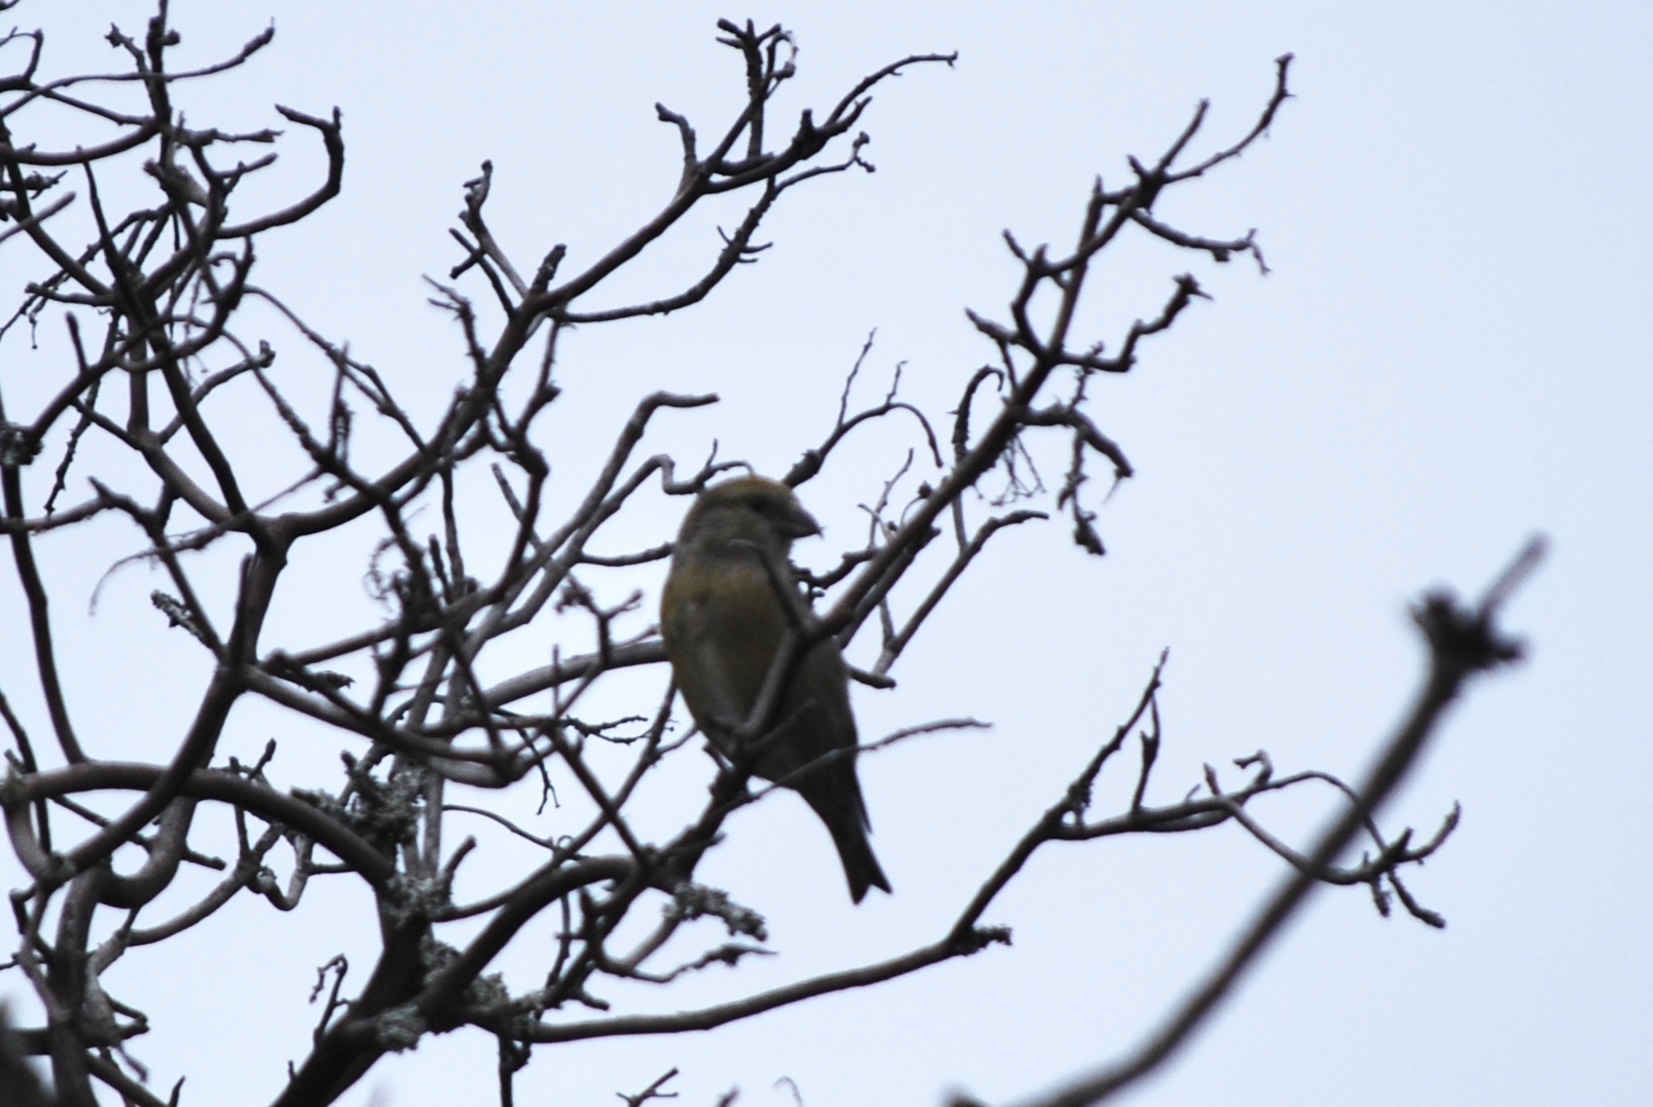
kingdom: Animalia
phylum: Chordata
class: Aves
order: Passeriformes
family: Fringillidae
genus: Loxia
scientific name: Loxia curvirostra
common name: Red crossbill
